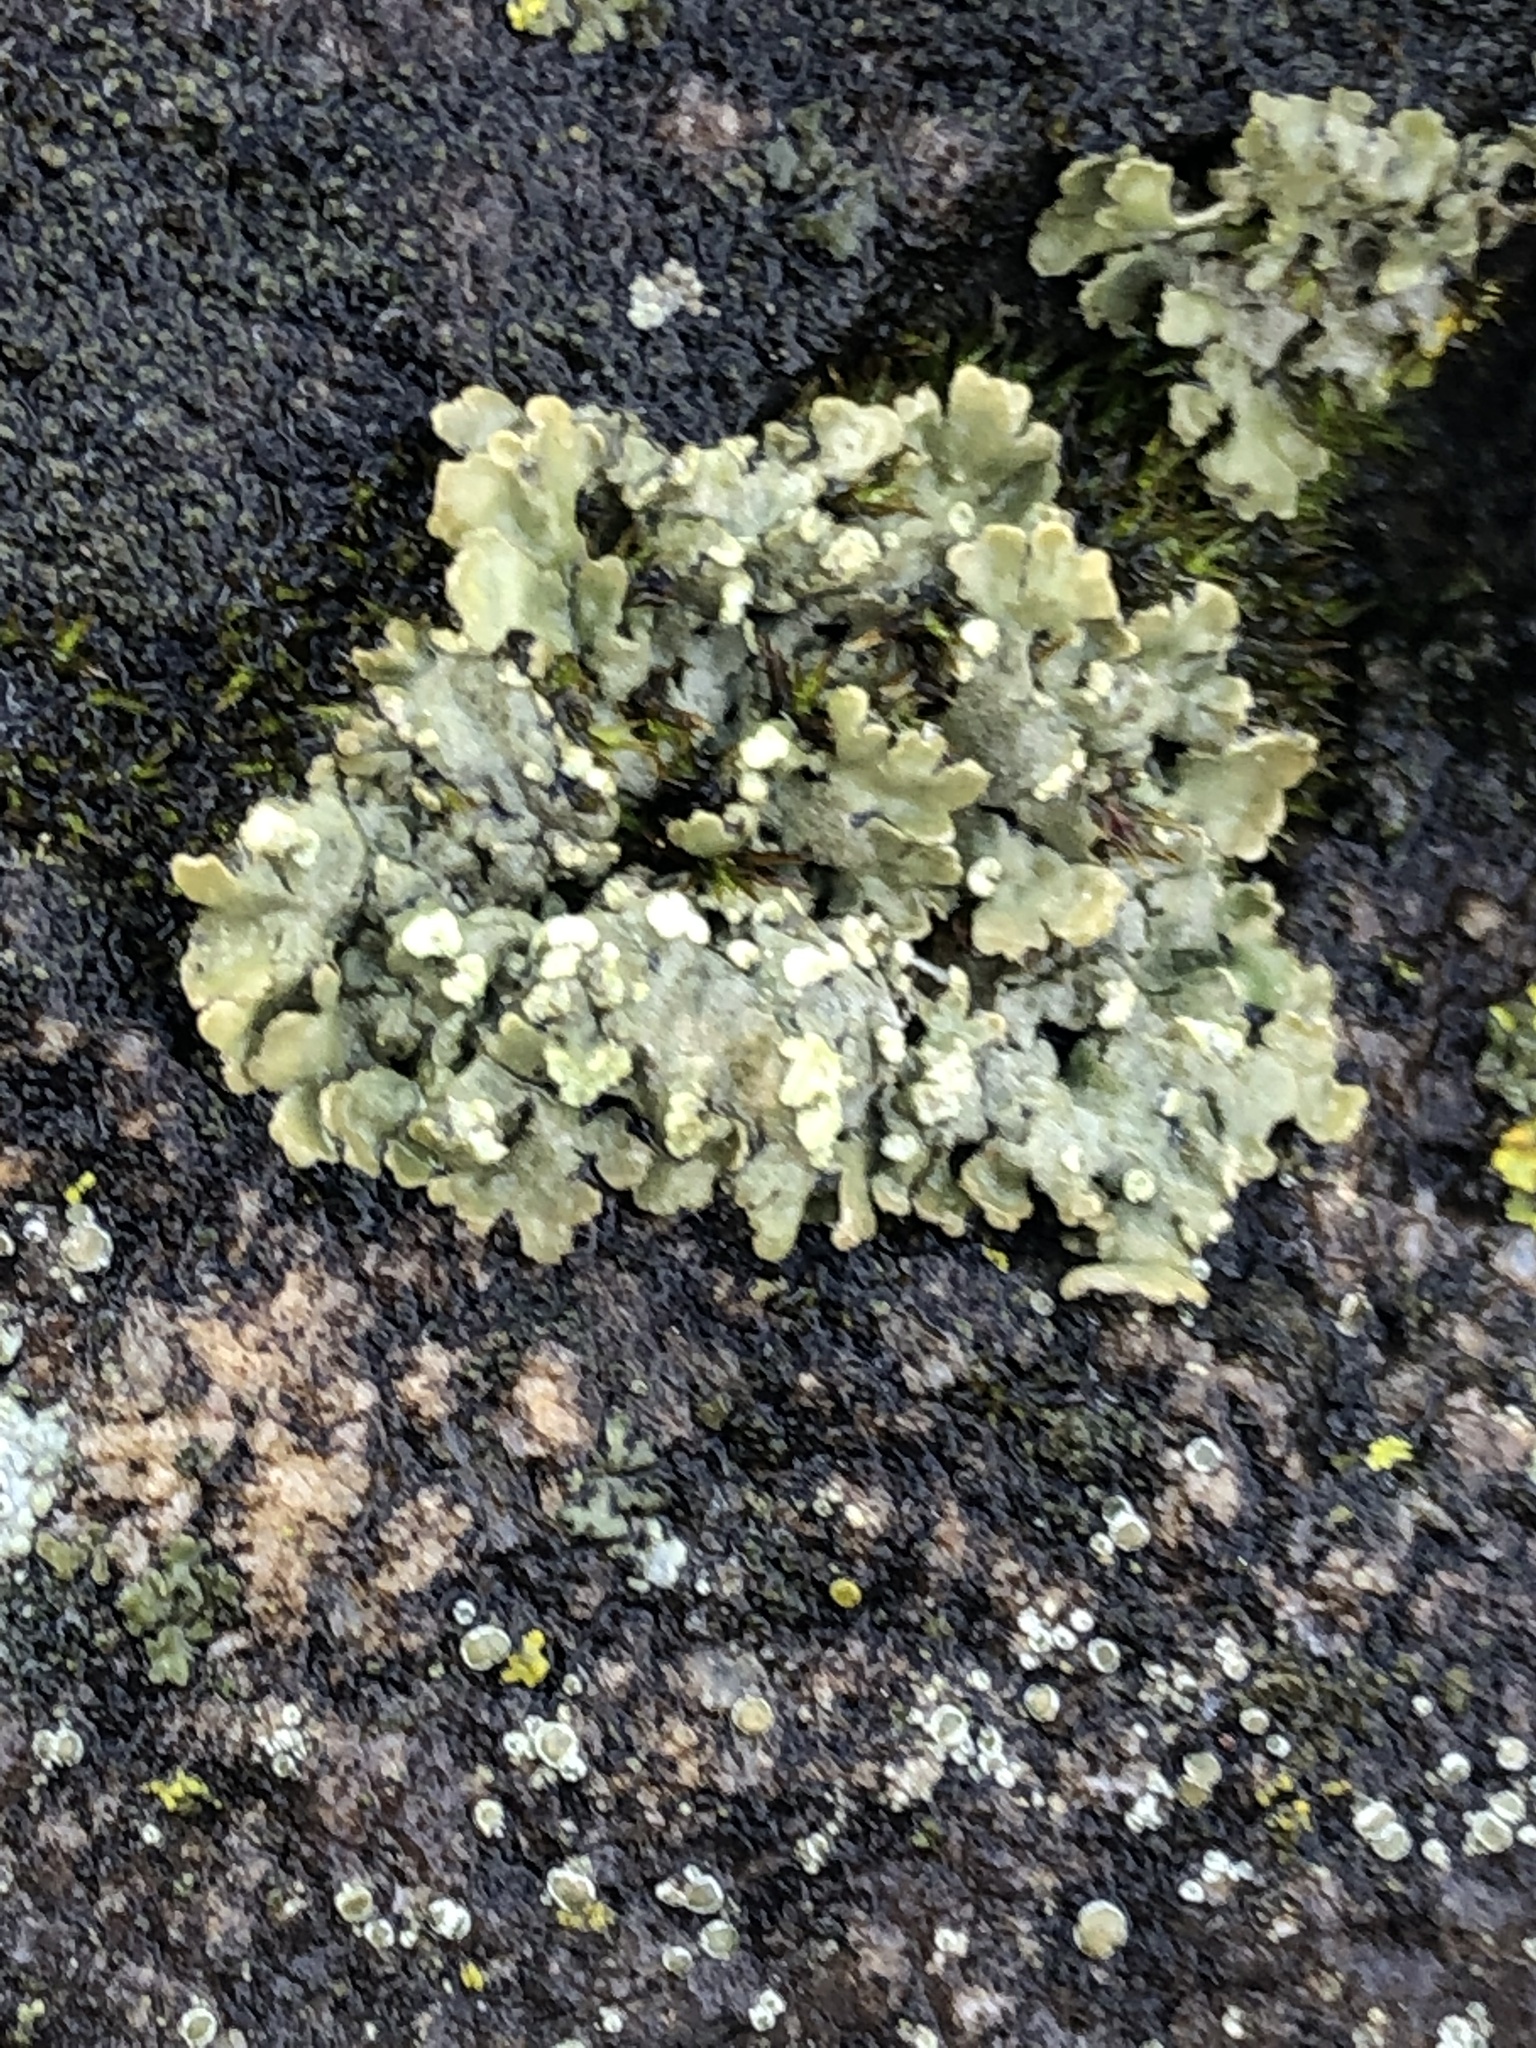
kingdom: Fungi
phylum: Ascomycota
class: Lecanoromycetes
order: Lecanorales
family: Parmeliaceae
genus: Flavopunctelia
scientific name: Flavopunctelia soredica
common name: Powder-edged speckled greenshield
